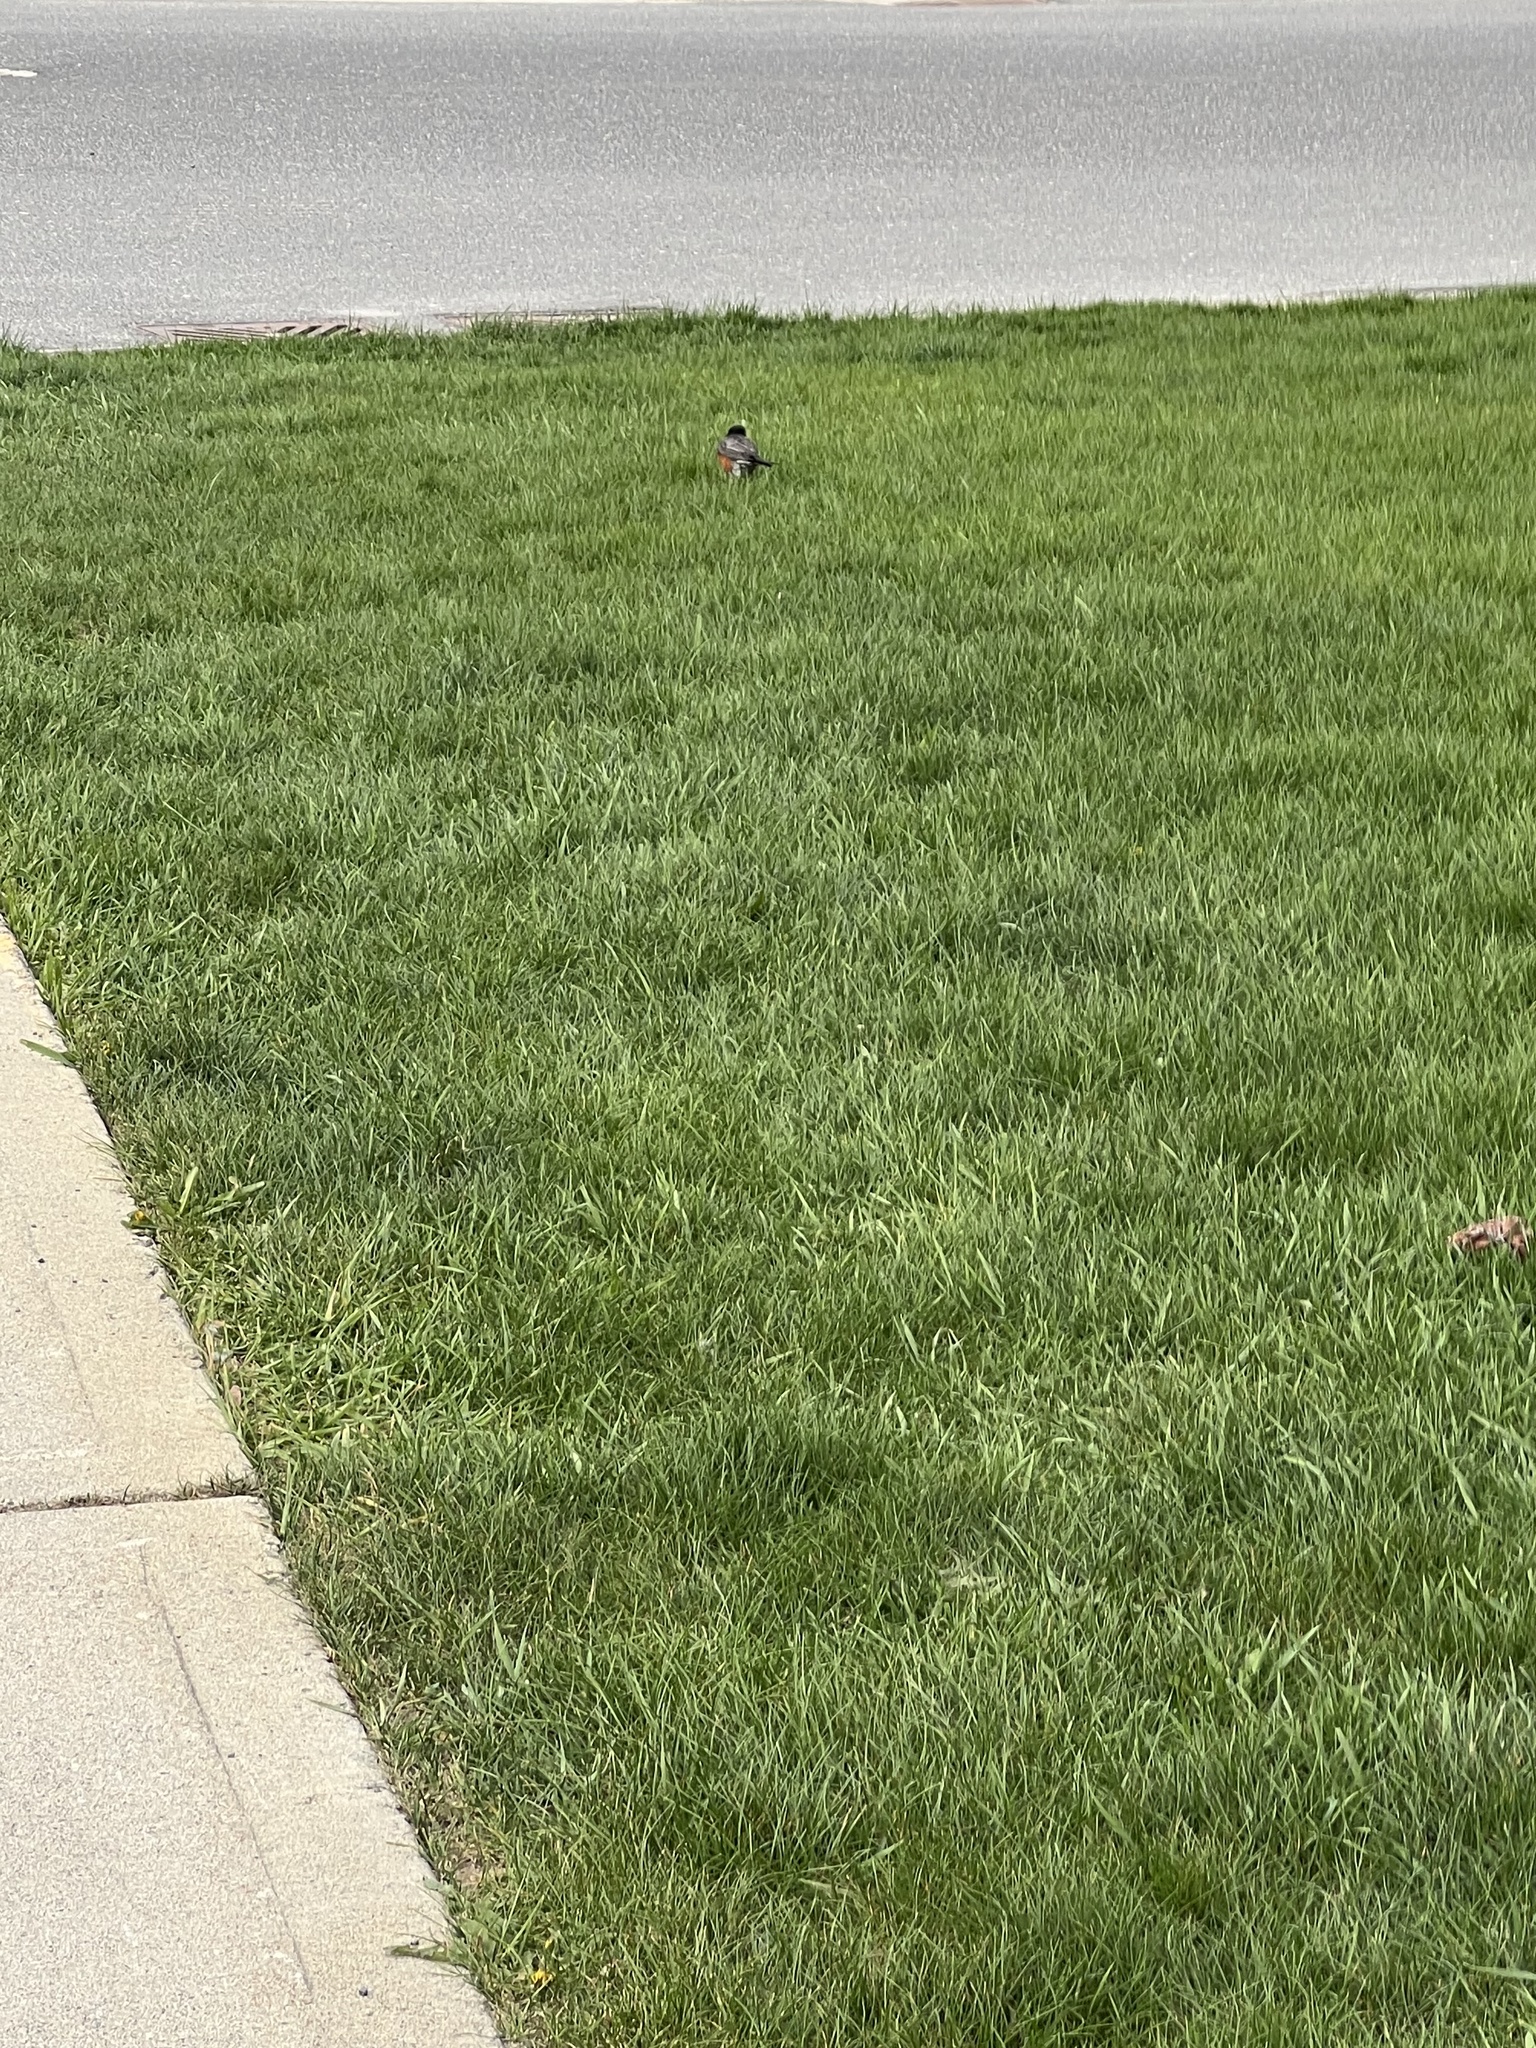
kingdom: Animalia
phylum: Chordata
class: Aves
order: Passeriformes
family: Turdidae
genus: Turdus
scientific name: Turdus migratorius
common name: American robin
